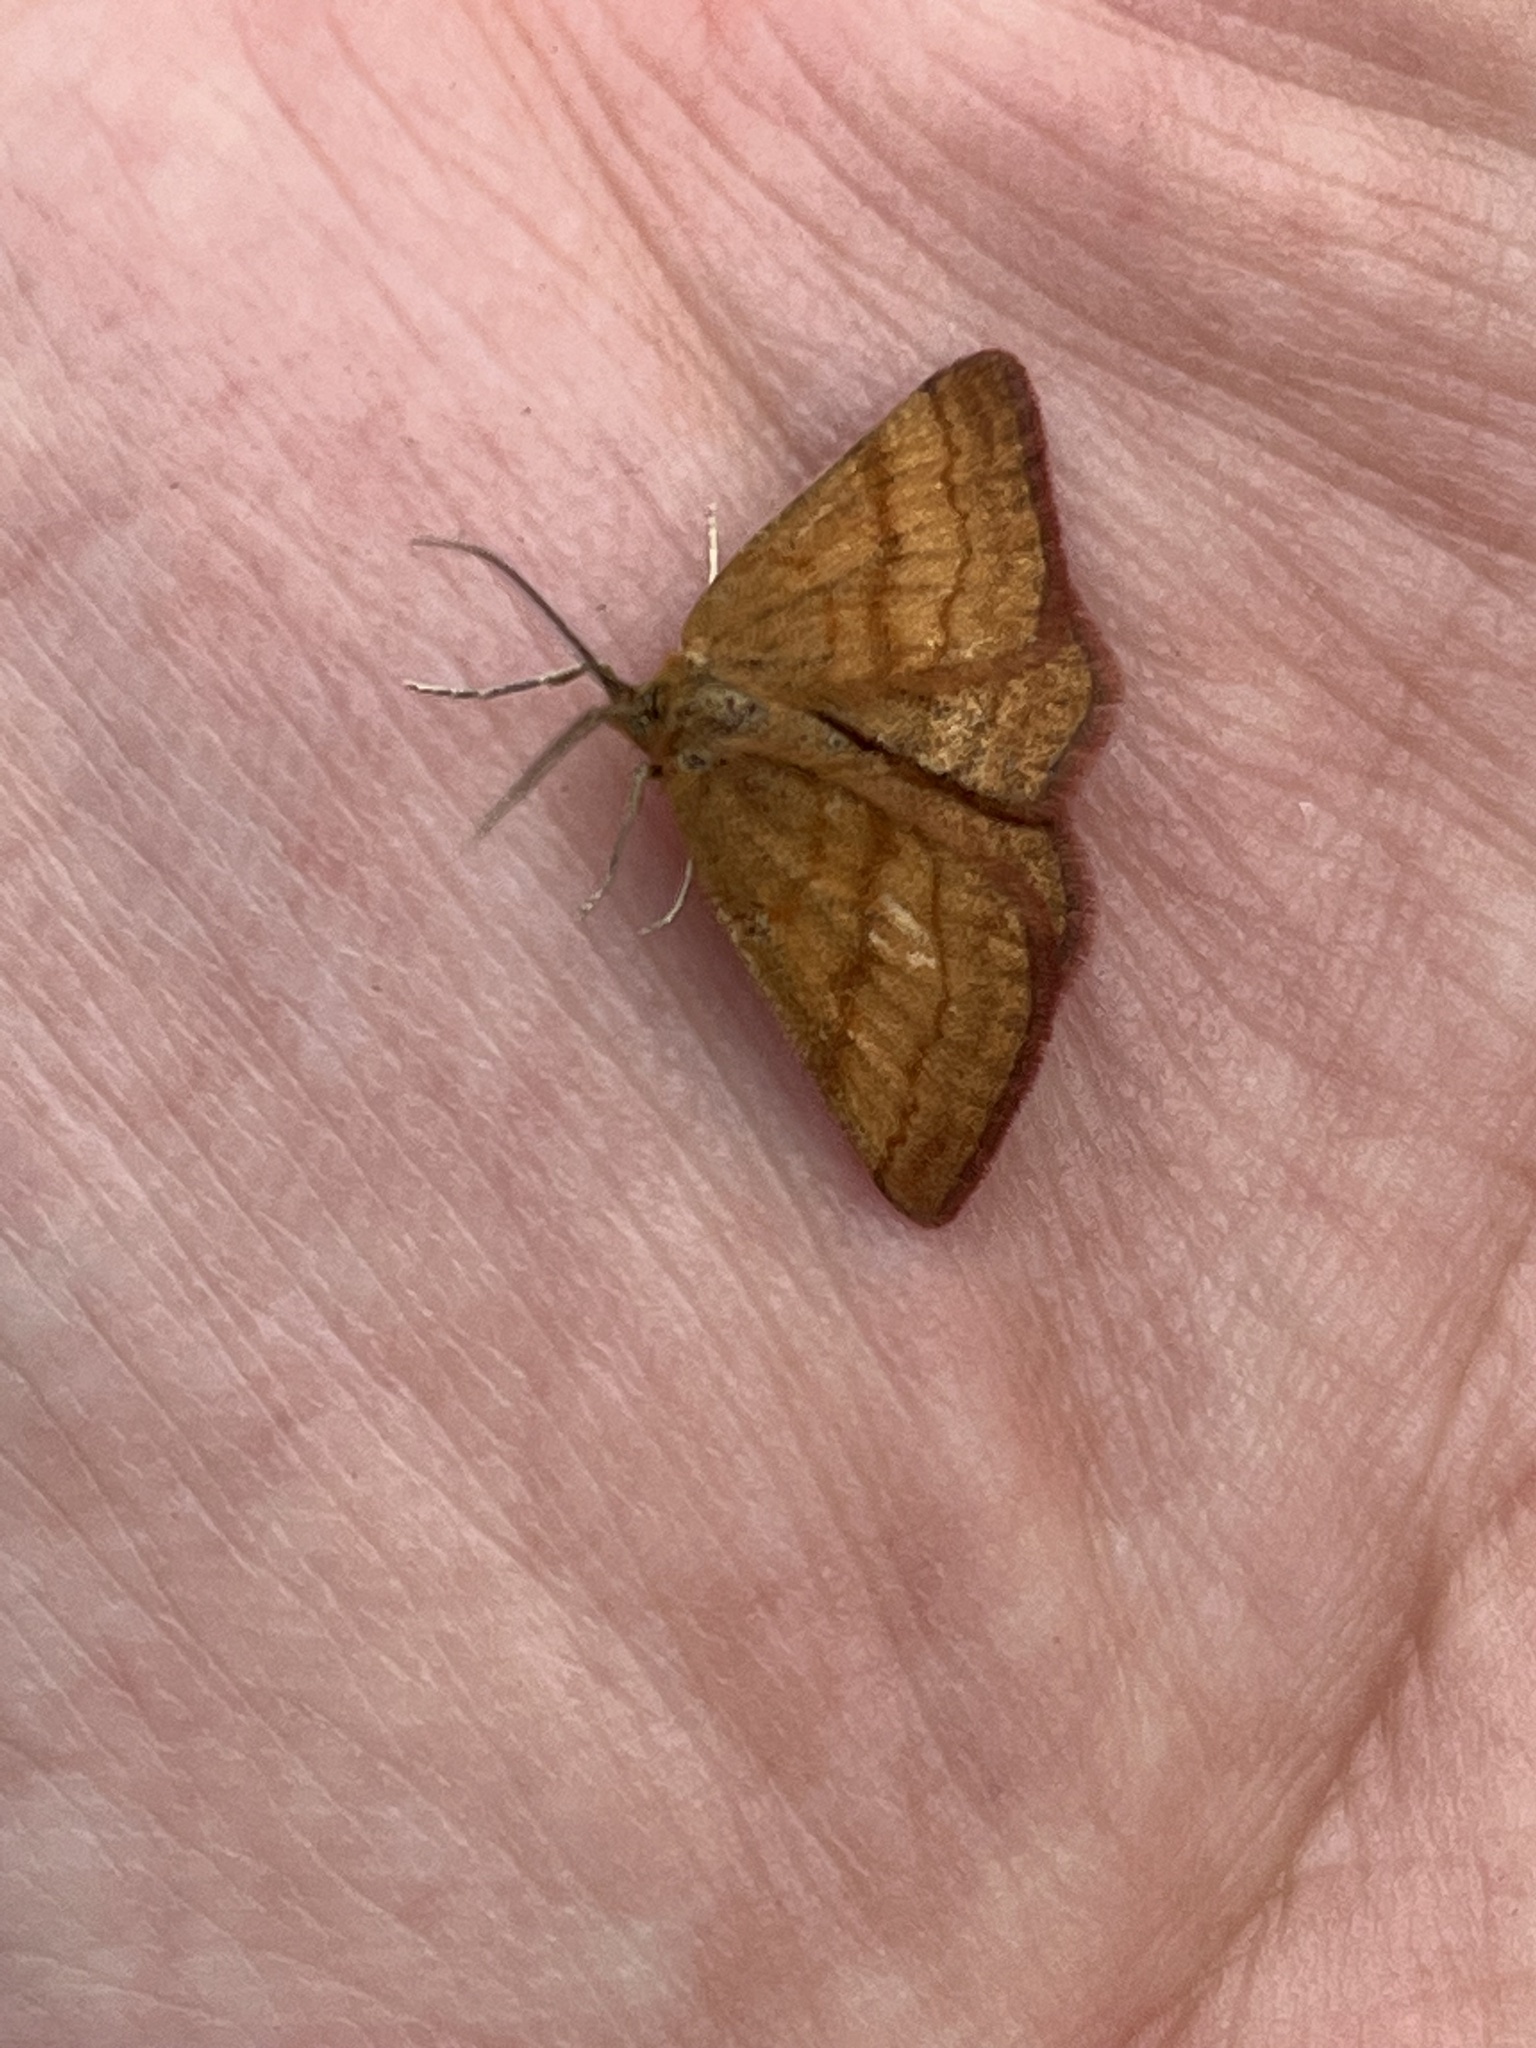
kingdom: Animalia
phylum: Arthropoda
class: Insecta
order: Lepidoptera
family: Geometridae
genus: Macaria
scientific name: Macaria brunneata
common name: Rannoch looper
